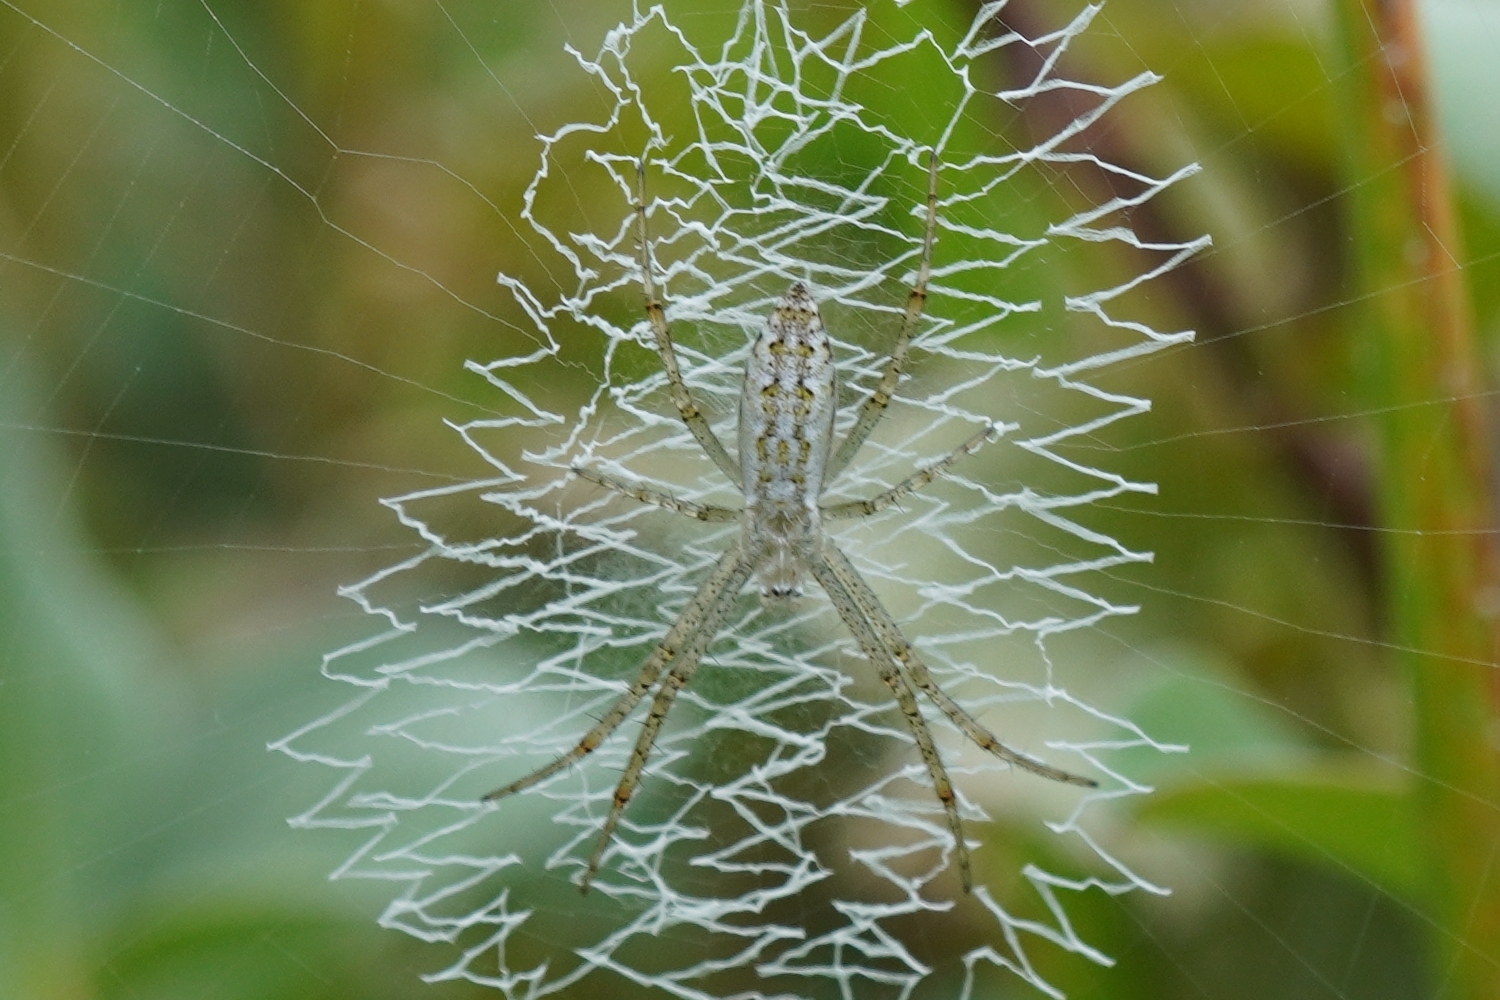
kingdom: Animalia
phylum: Arthropoda
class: Arachnida
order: Araneae
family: Araneidae
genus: Argiope
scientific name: Argiope bruennichi
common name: Wasp spider
